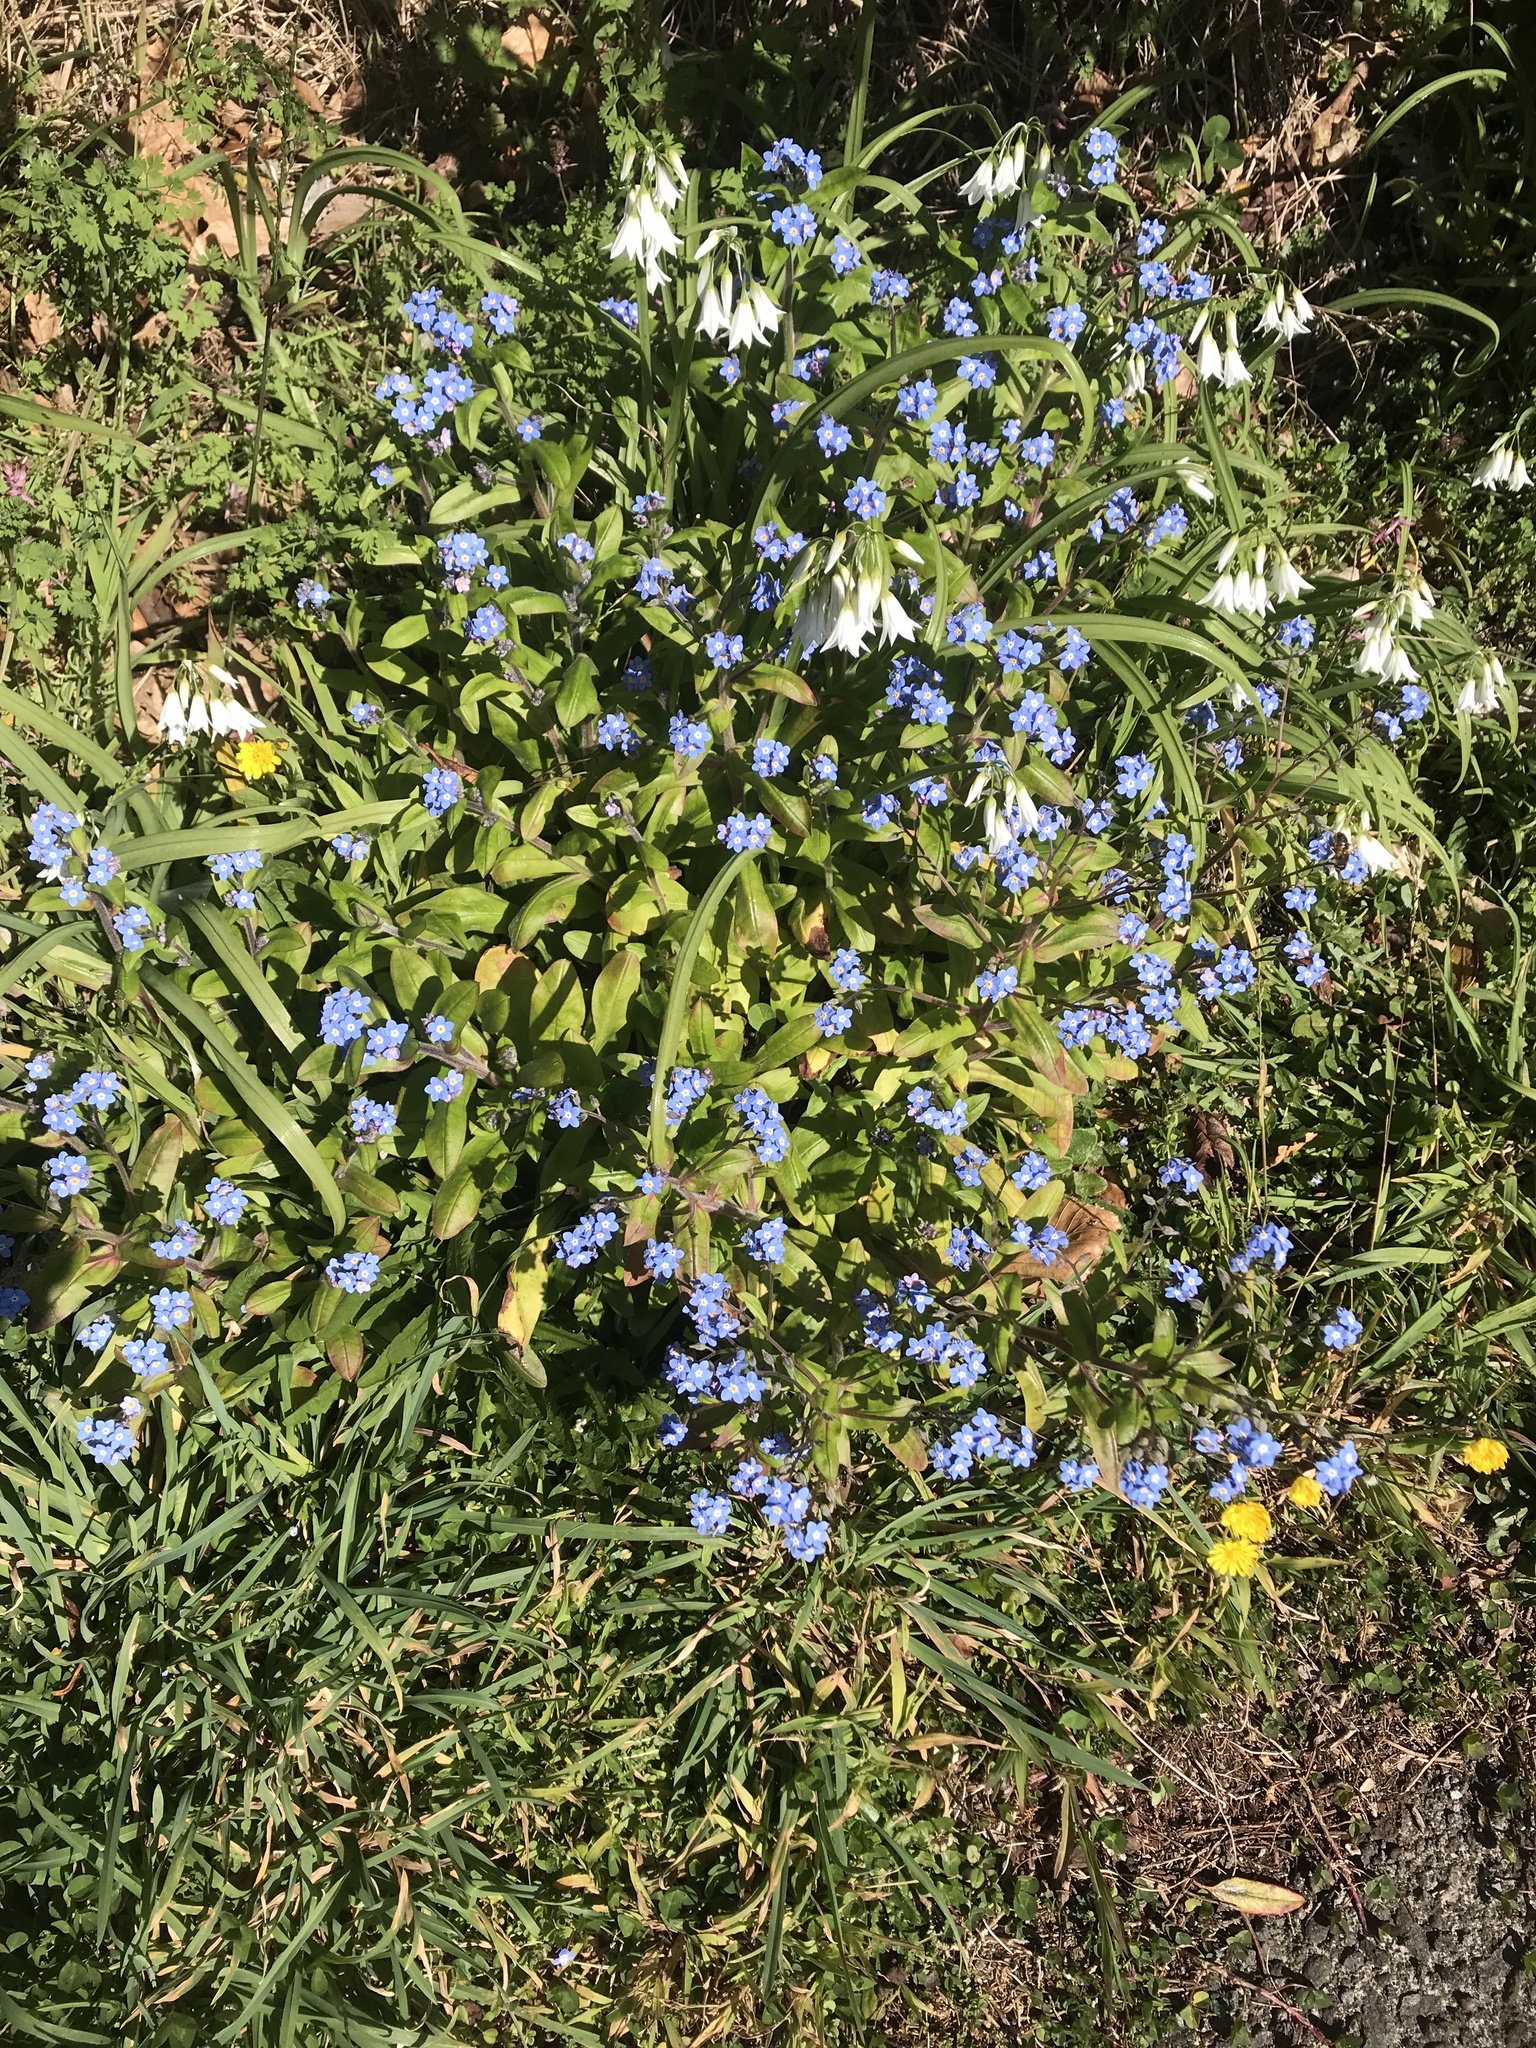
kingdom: Plantae
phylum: Tracheophyta
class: Magnoliopsida
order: Boraginales
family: Boraginaceae
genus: Myosotis
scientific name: Myosotis sylvatica
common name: Wood forget-me-not
